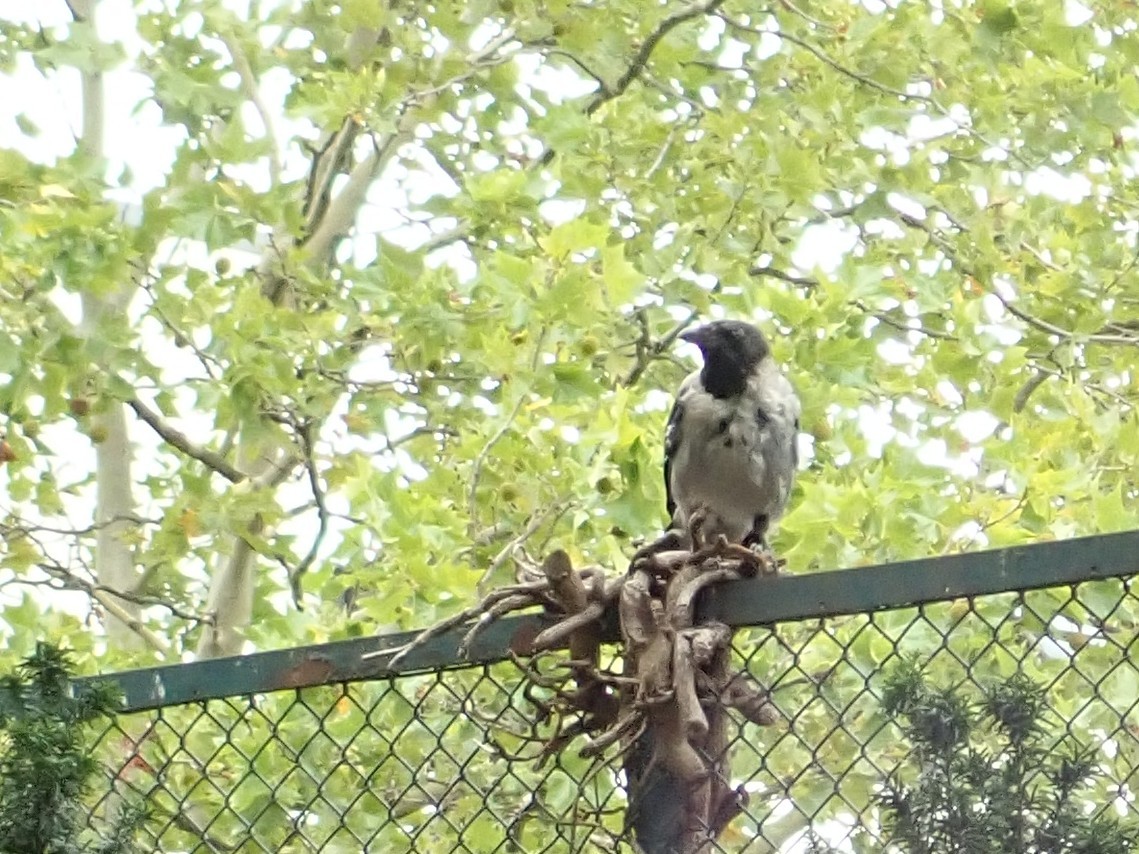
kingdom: Animalia
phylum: Chordata
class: Aves
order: Passeriformes
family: Corvidae
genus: Corvus
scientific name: Corvus cornix
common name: Hooded crow
